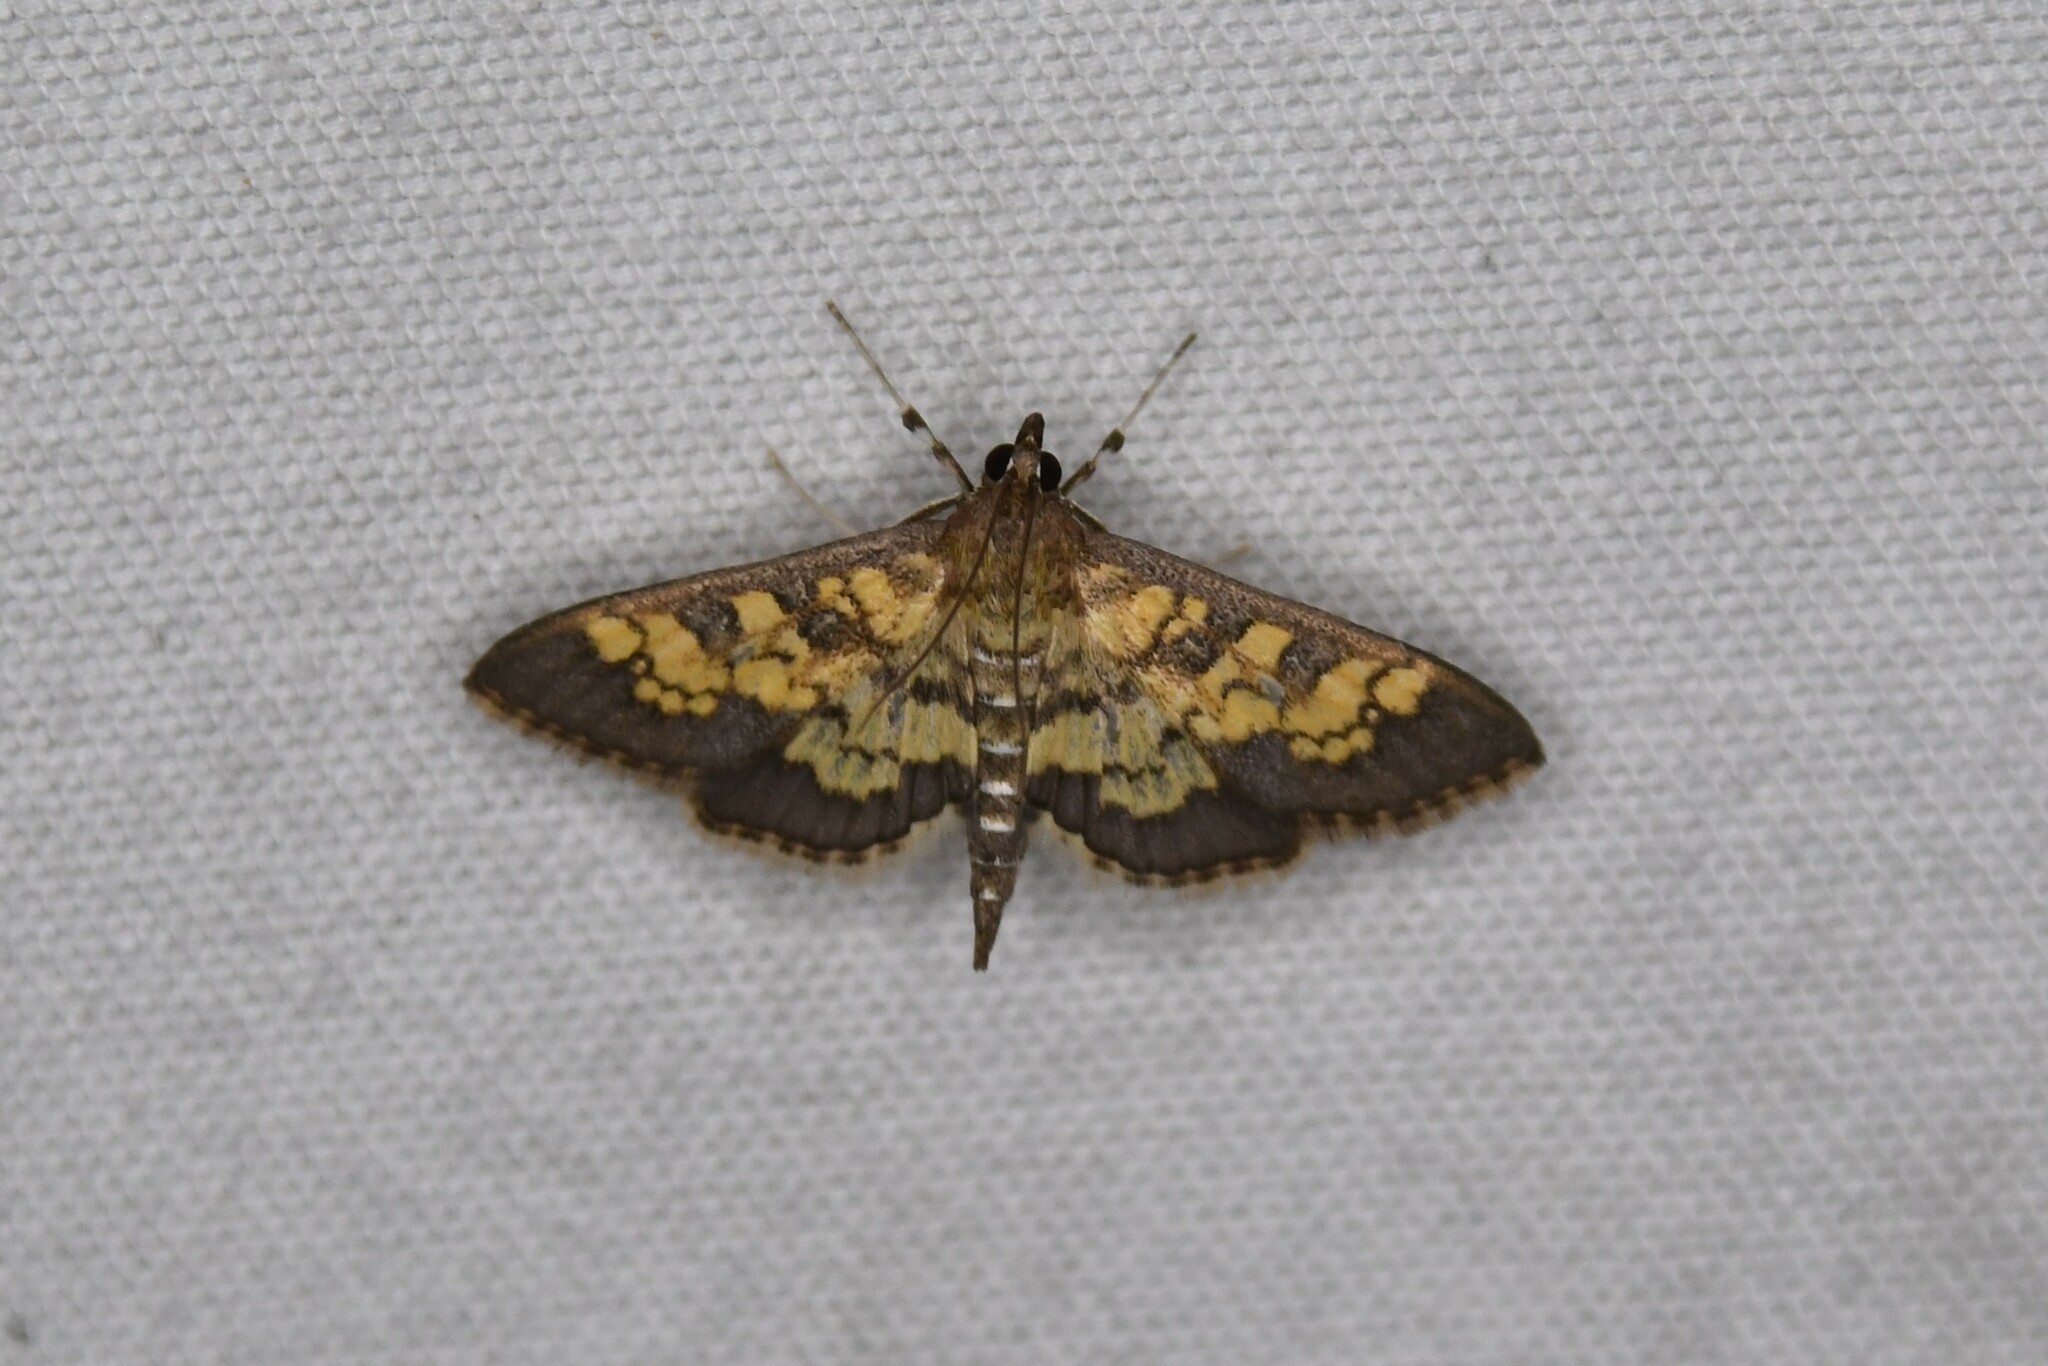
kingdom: Animalia
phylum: Arthropoda
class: Insecta
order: Lepidoptera
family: Crambidae
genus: Epipagis
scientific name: Epipagis adipaloides
